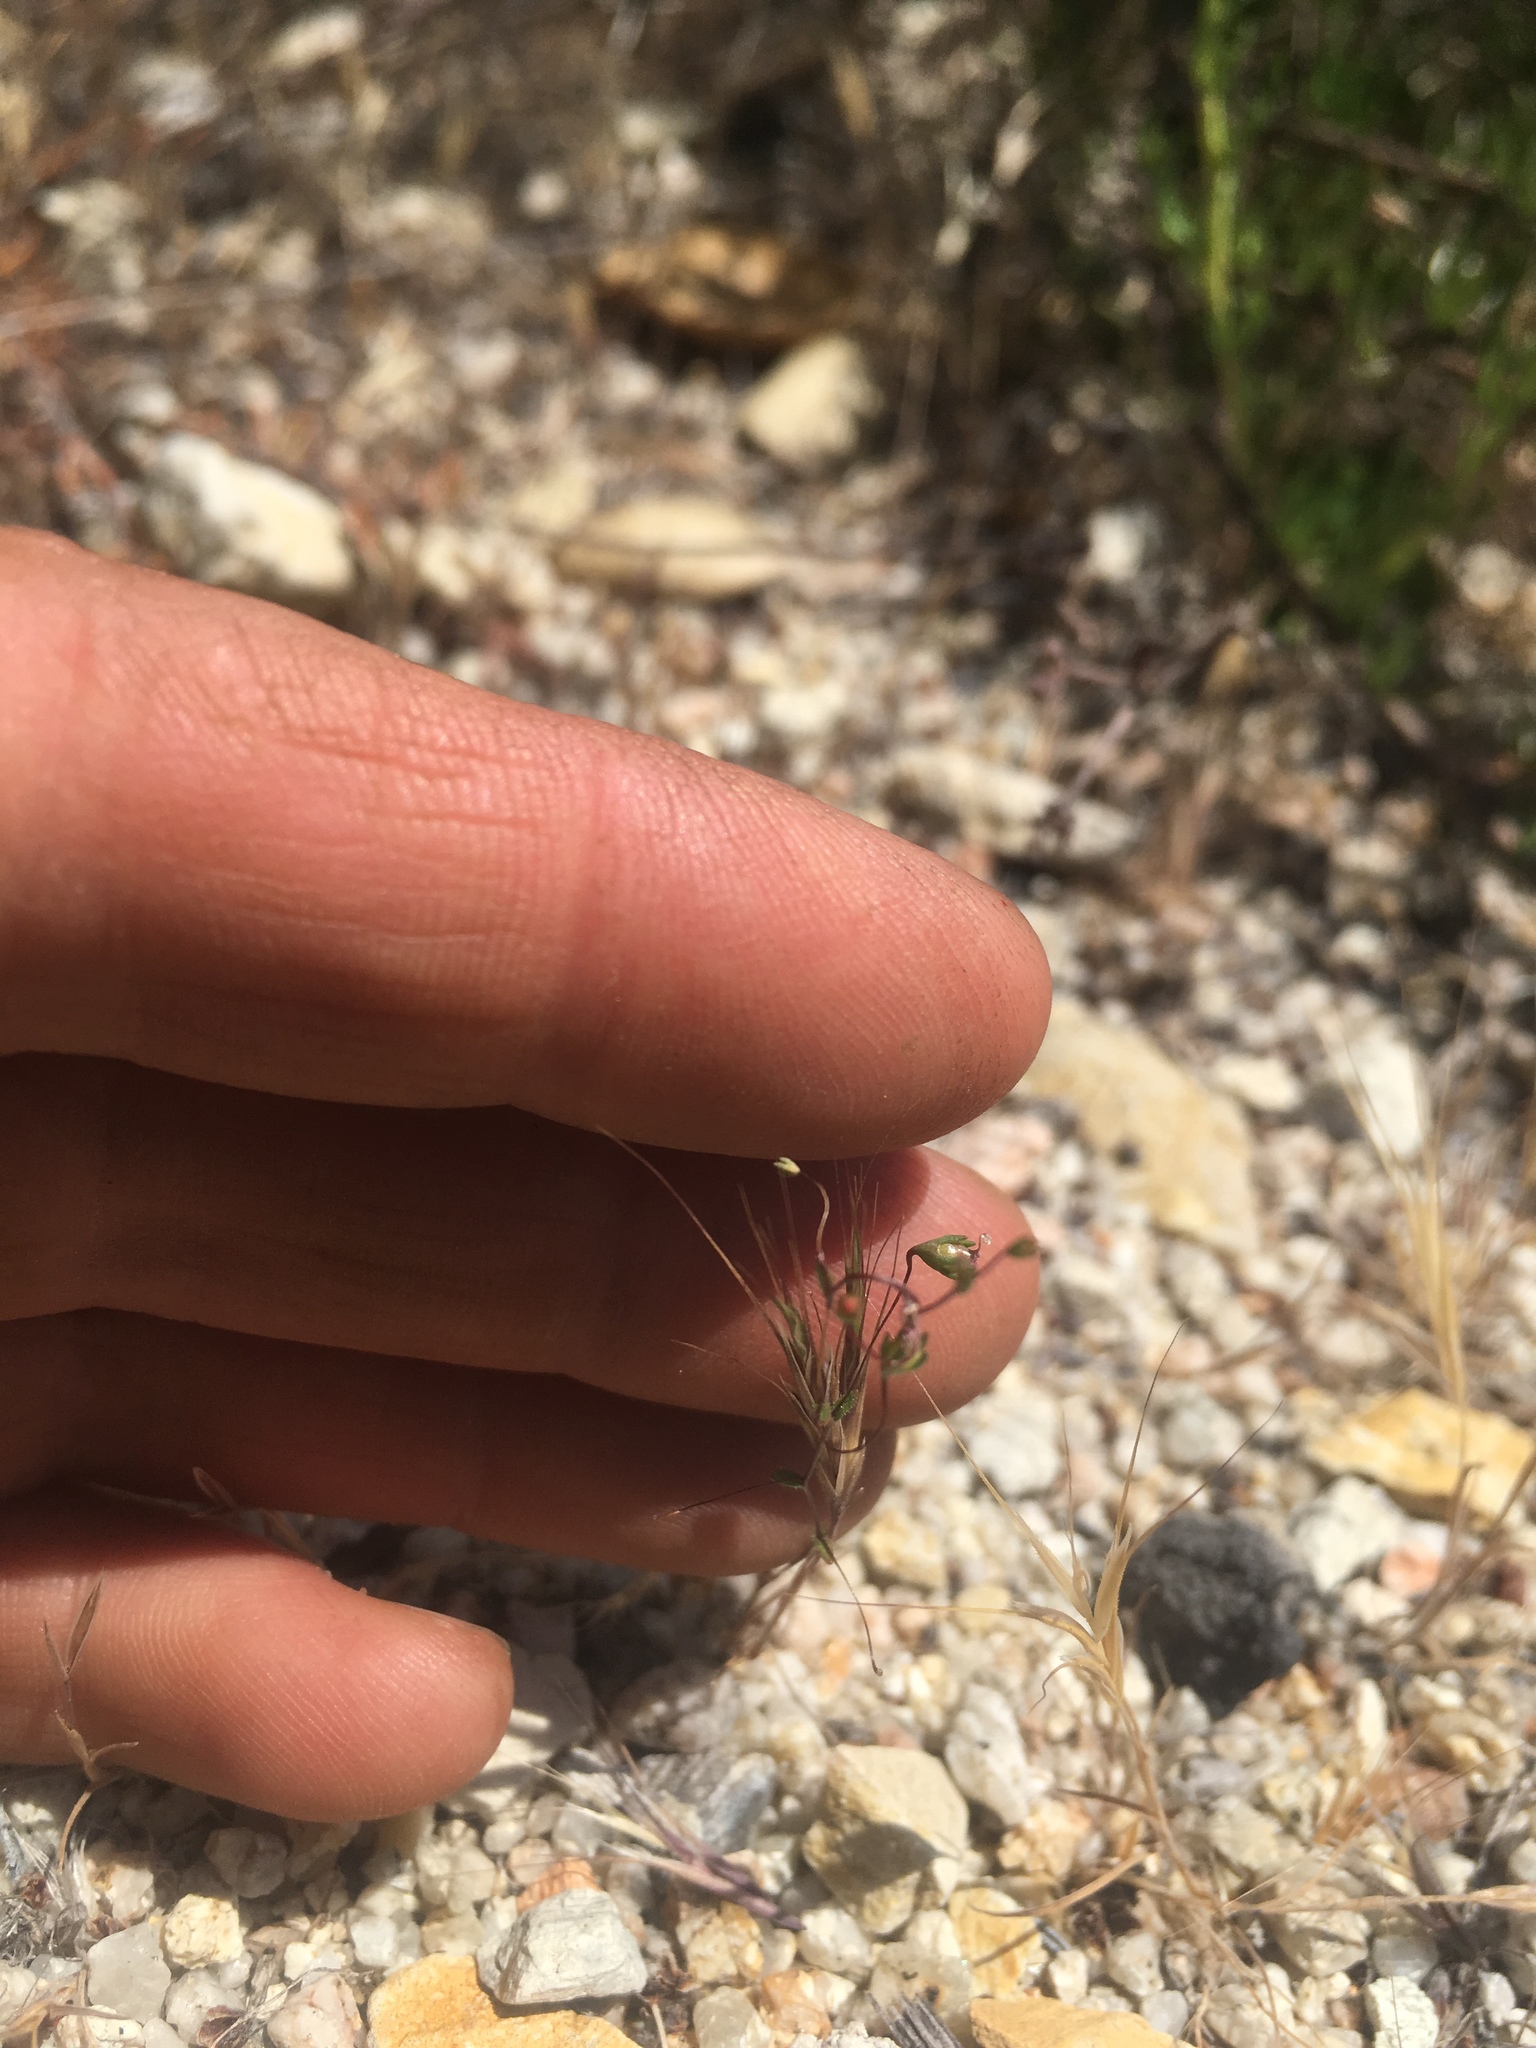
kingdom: Plantae
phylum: Tracheophyta
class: Magnoliopsida
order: Asterales
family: Campanulaceae
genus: Nemacladus
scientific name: Nemacladus secundiflorus
